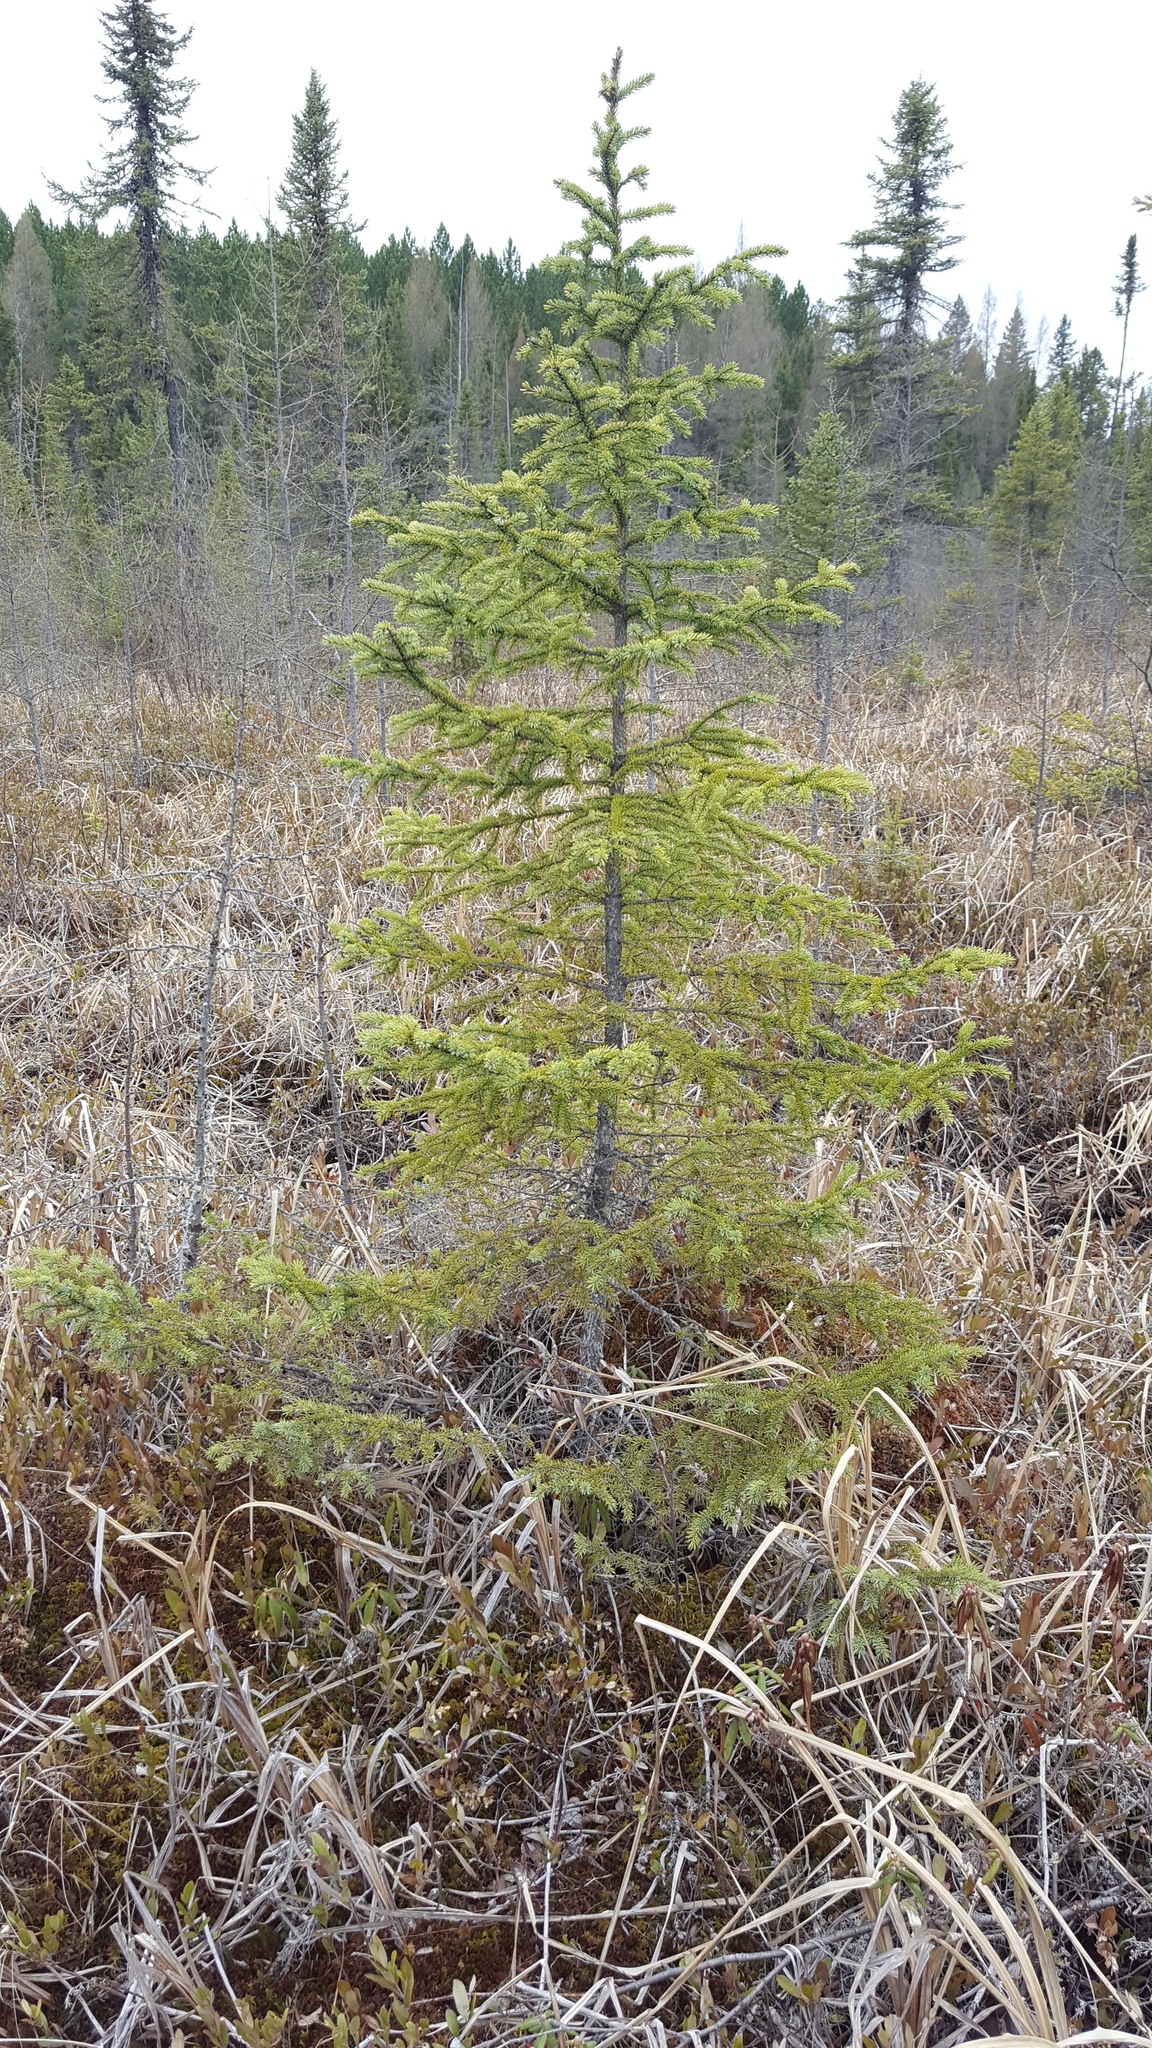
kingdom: Plantae
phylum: Tracheophyta
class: Pinopsida
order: Pinales
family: Pinaceae
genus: Picea
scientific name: Picea mariana
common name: Black spruce
